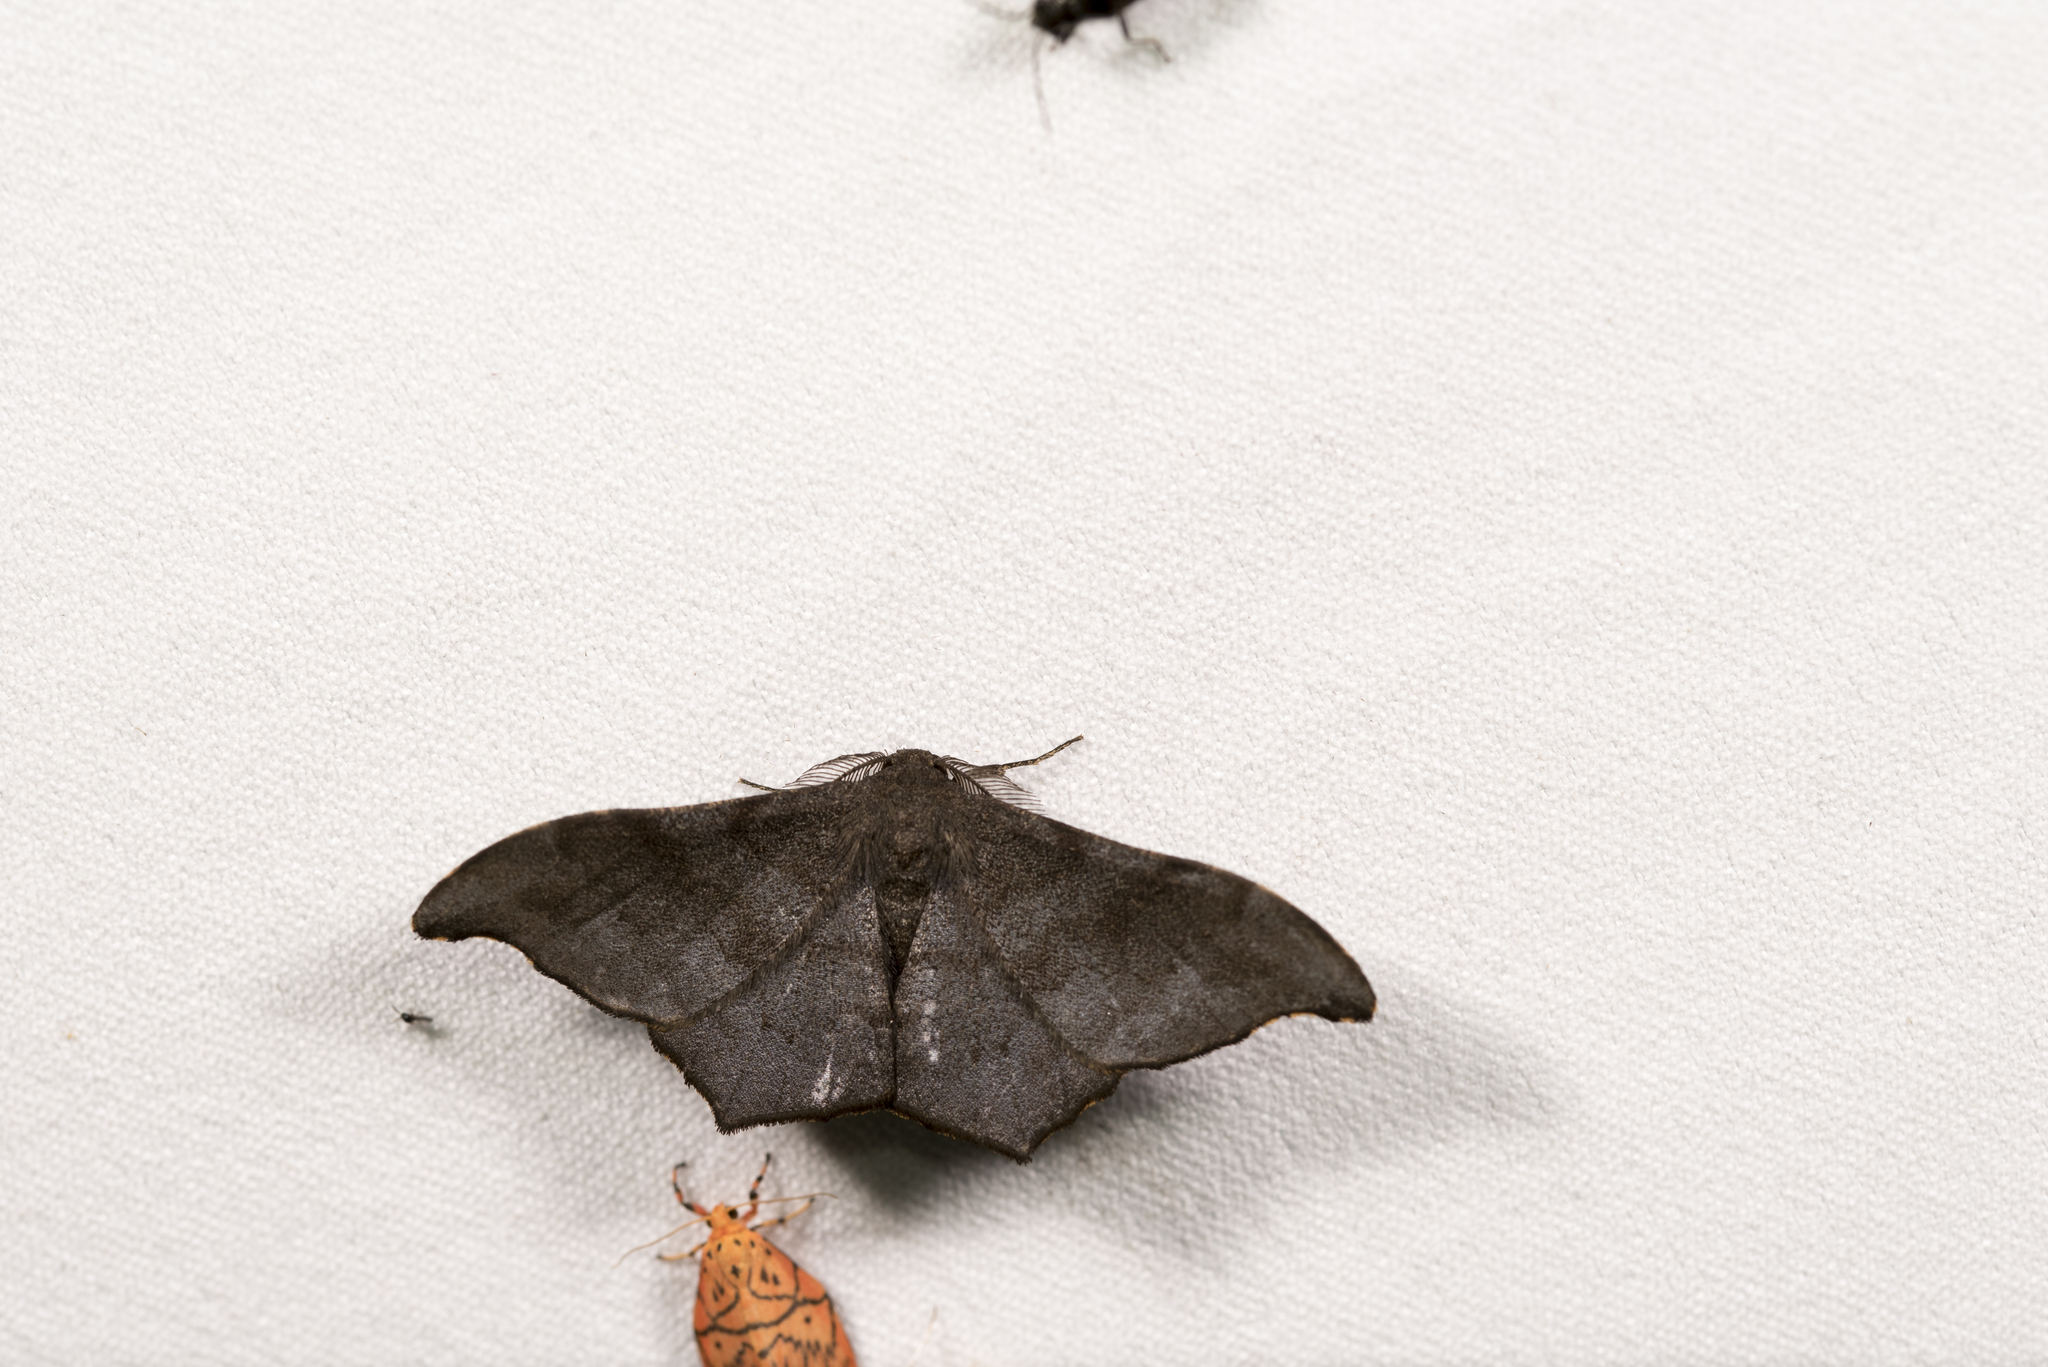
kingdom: Animalia
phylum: Arthropoda
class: Insecta
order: Lepidoptera
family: Geometridae
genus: Hyposidra
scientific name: Hyposidra talaca
